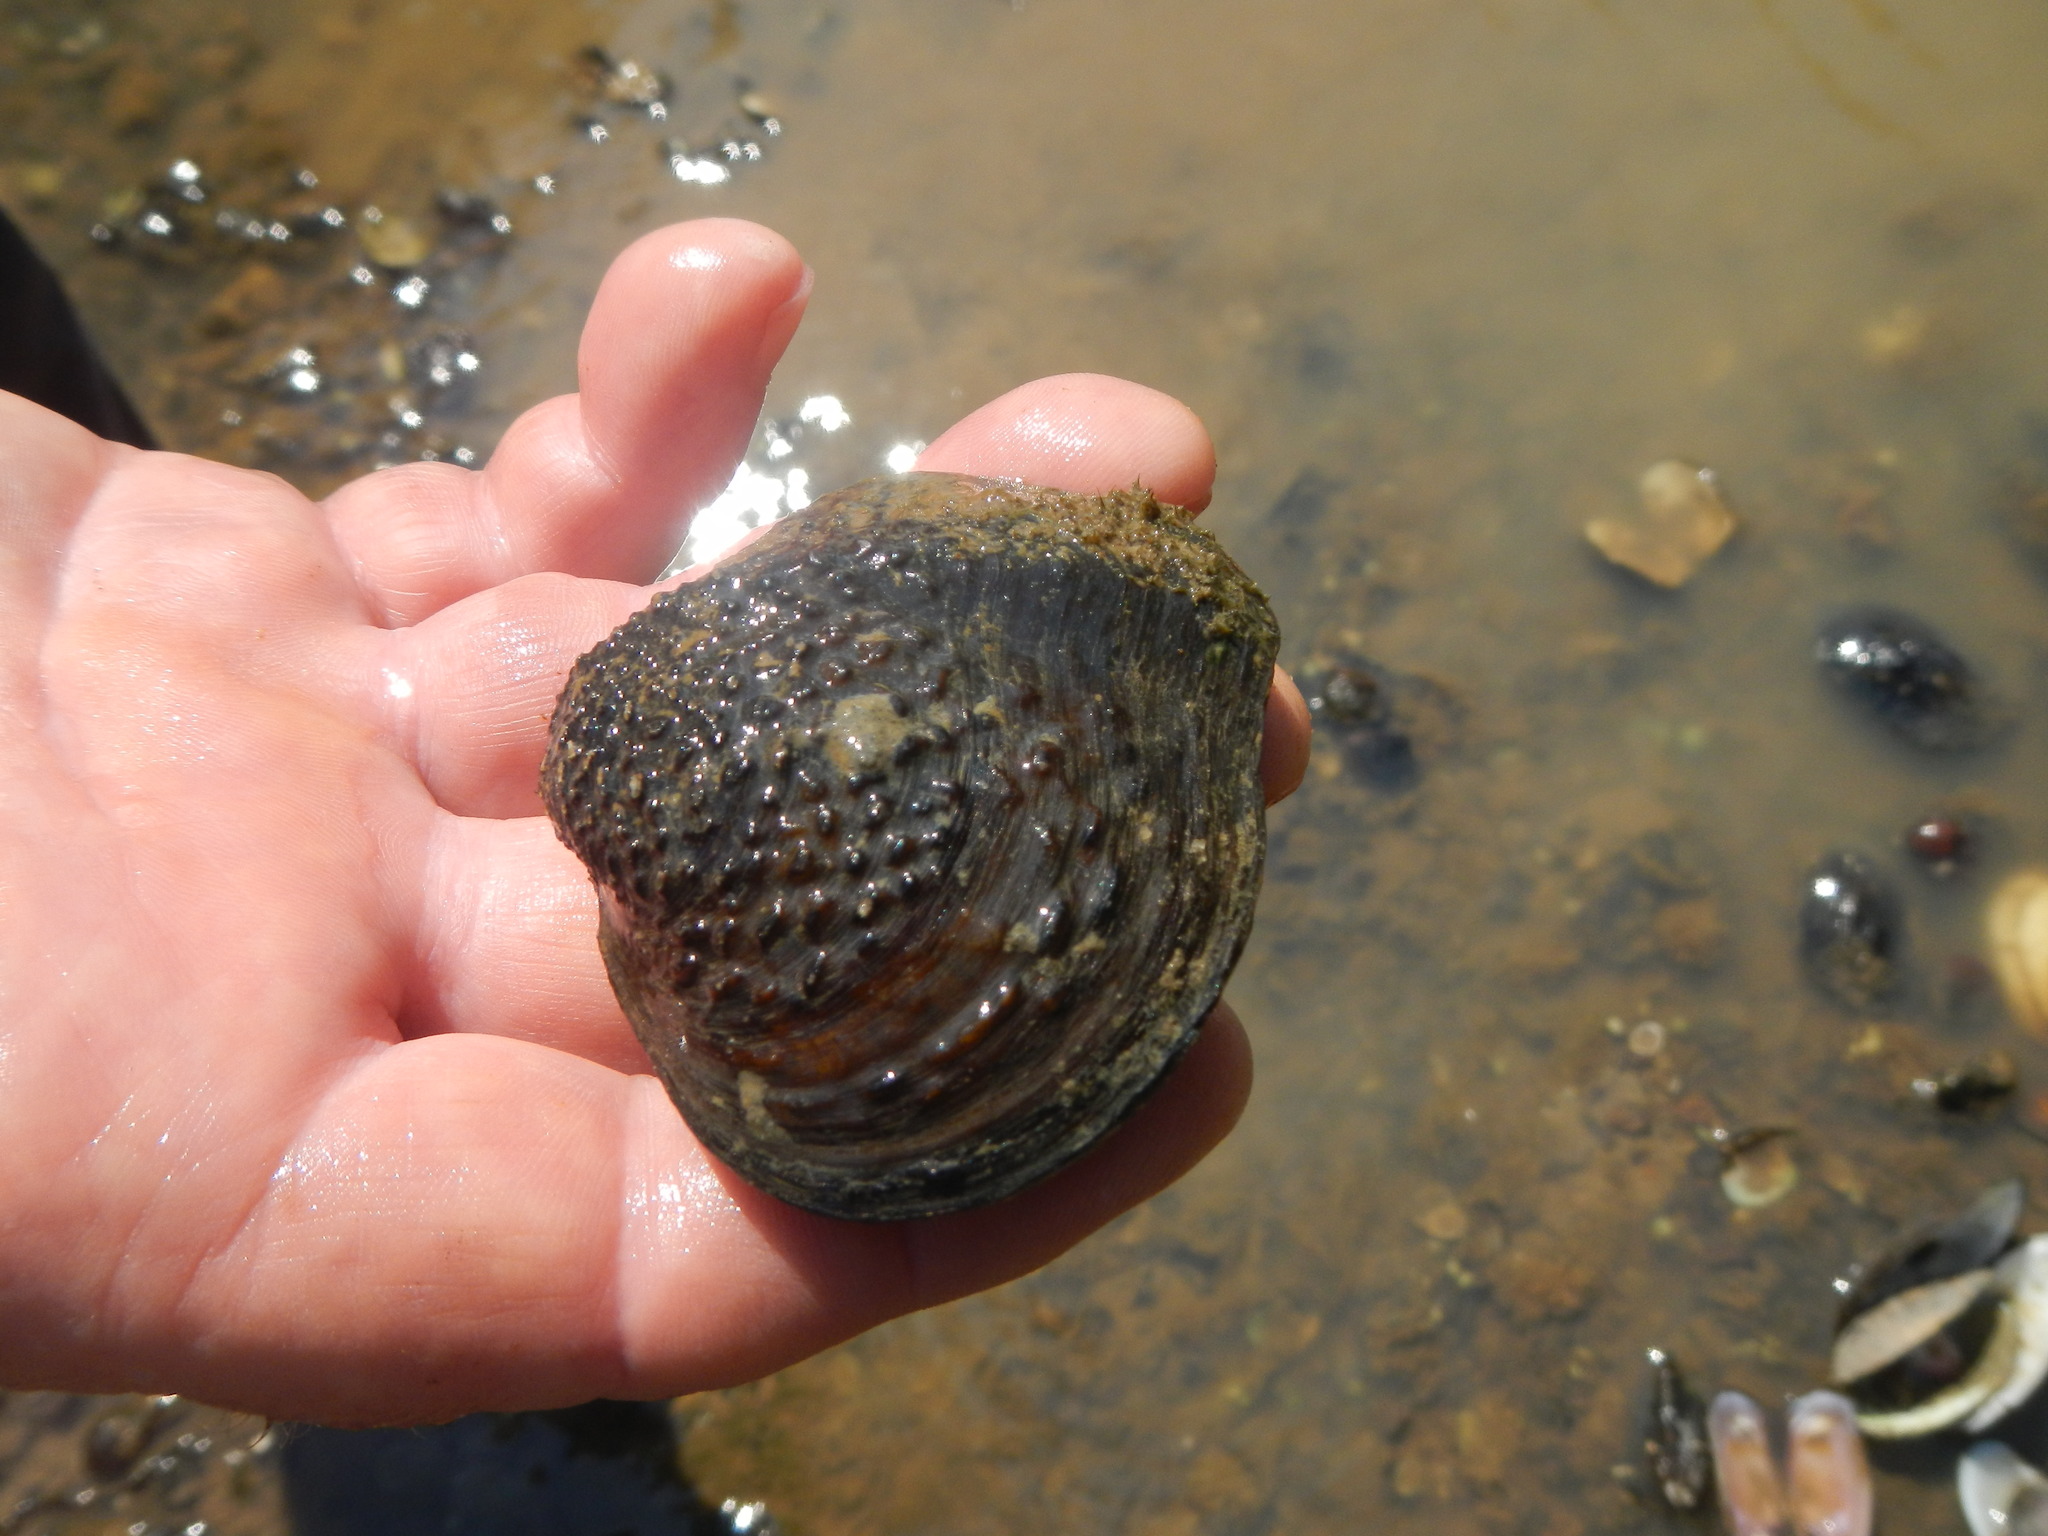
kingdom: Animalia
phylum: Mollusca
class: Bivalvia
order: Unionida
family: Unionidae
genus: Quadrula
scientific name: Quadrula quadrula
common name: Mapleleaf
